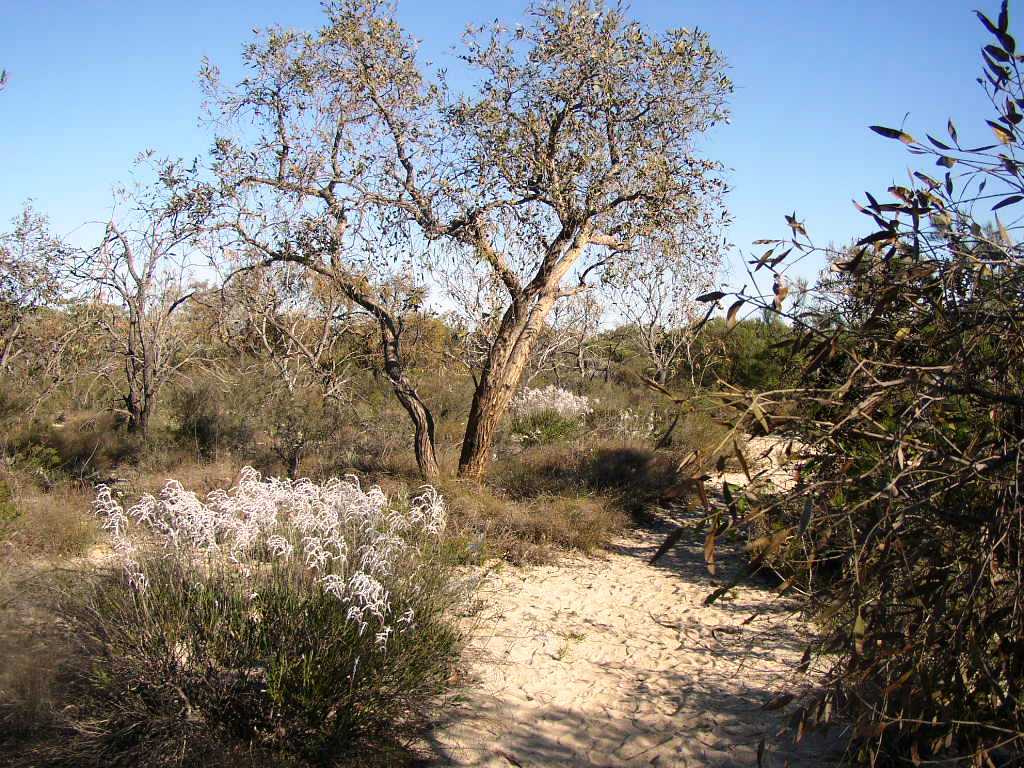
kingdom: Plantae
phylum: Tracheophyta
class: Magnoliopsida
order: Myrtales
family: Myrtaceae
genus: Eucalyptus
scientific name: Eucalyptus todtiana
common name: Coastal blackbutt
